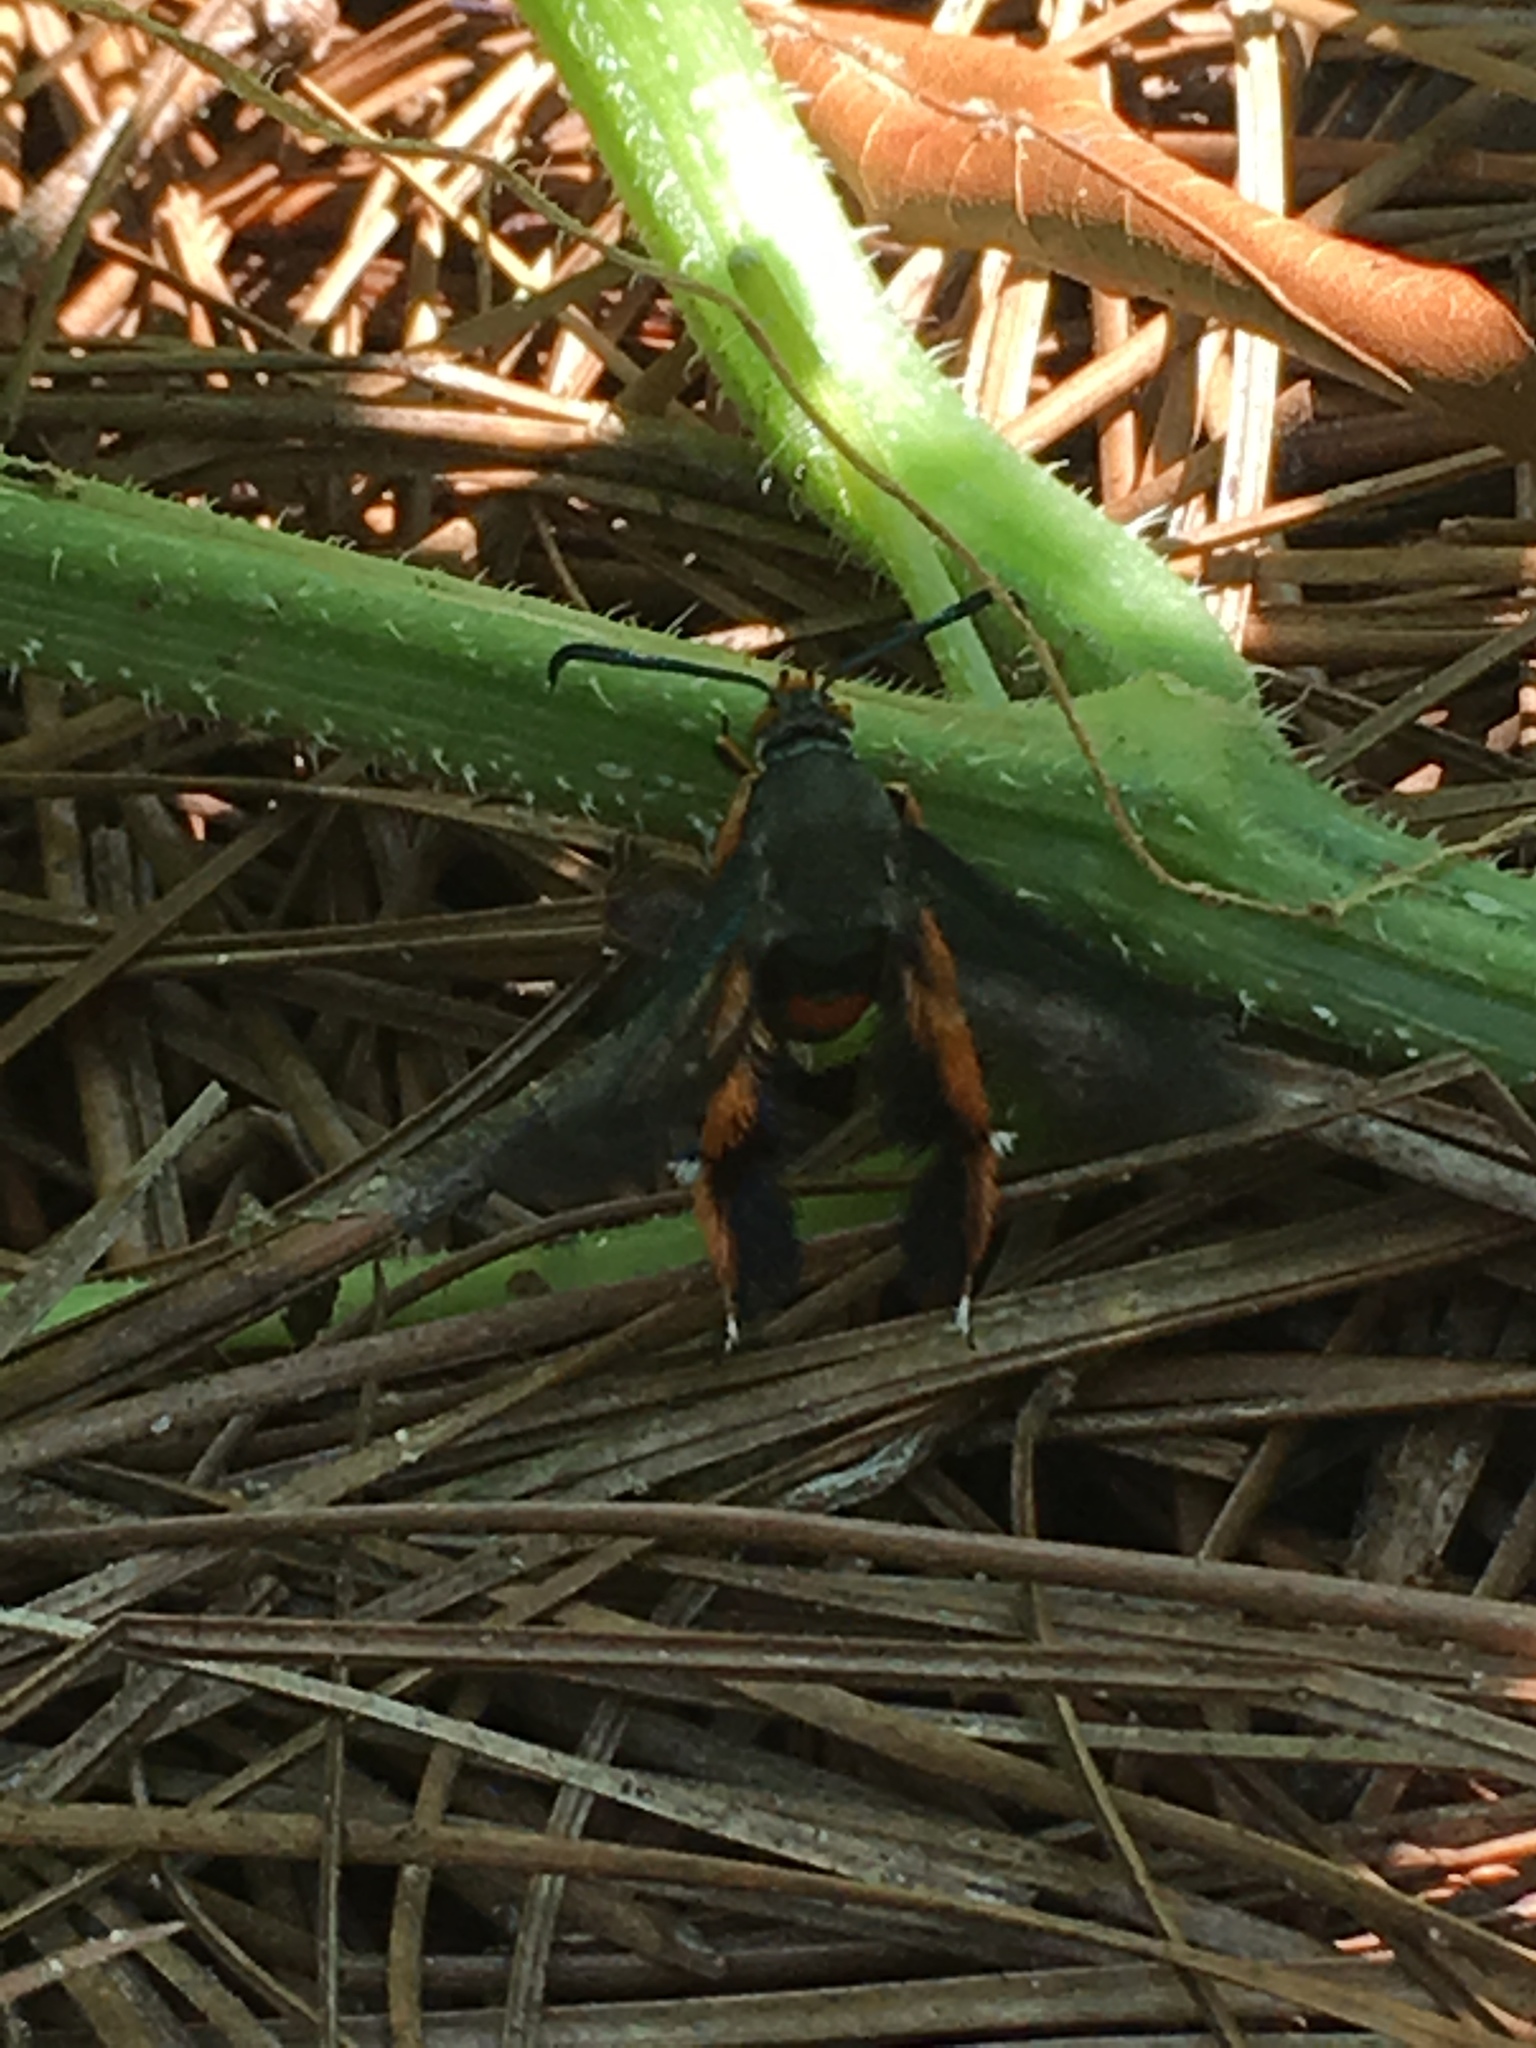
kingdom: Animalia
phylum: Arthropoda
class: Insecta
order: Lepidoptera
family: Sesiidae
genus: Eichlinia
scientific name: Eichlinia cucurbitae
